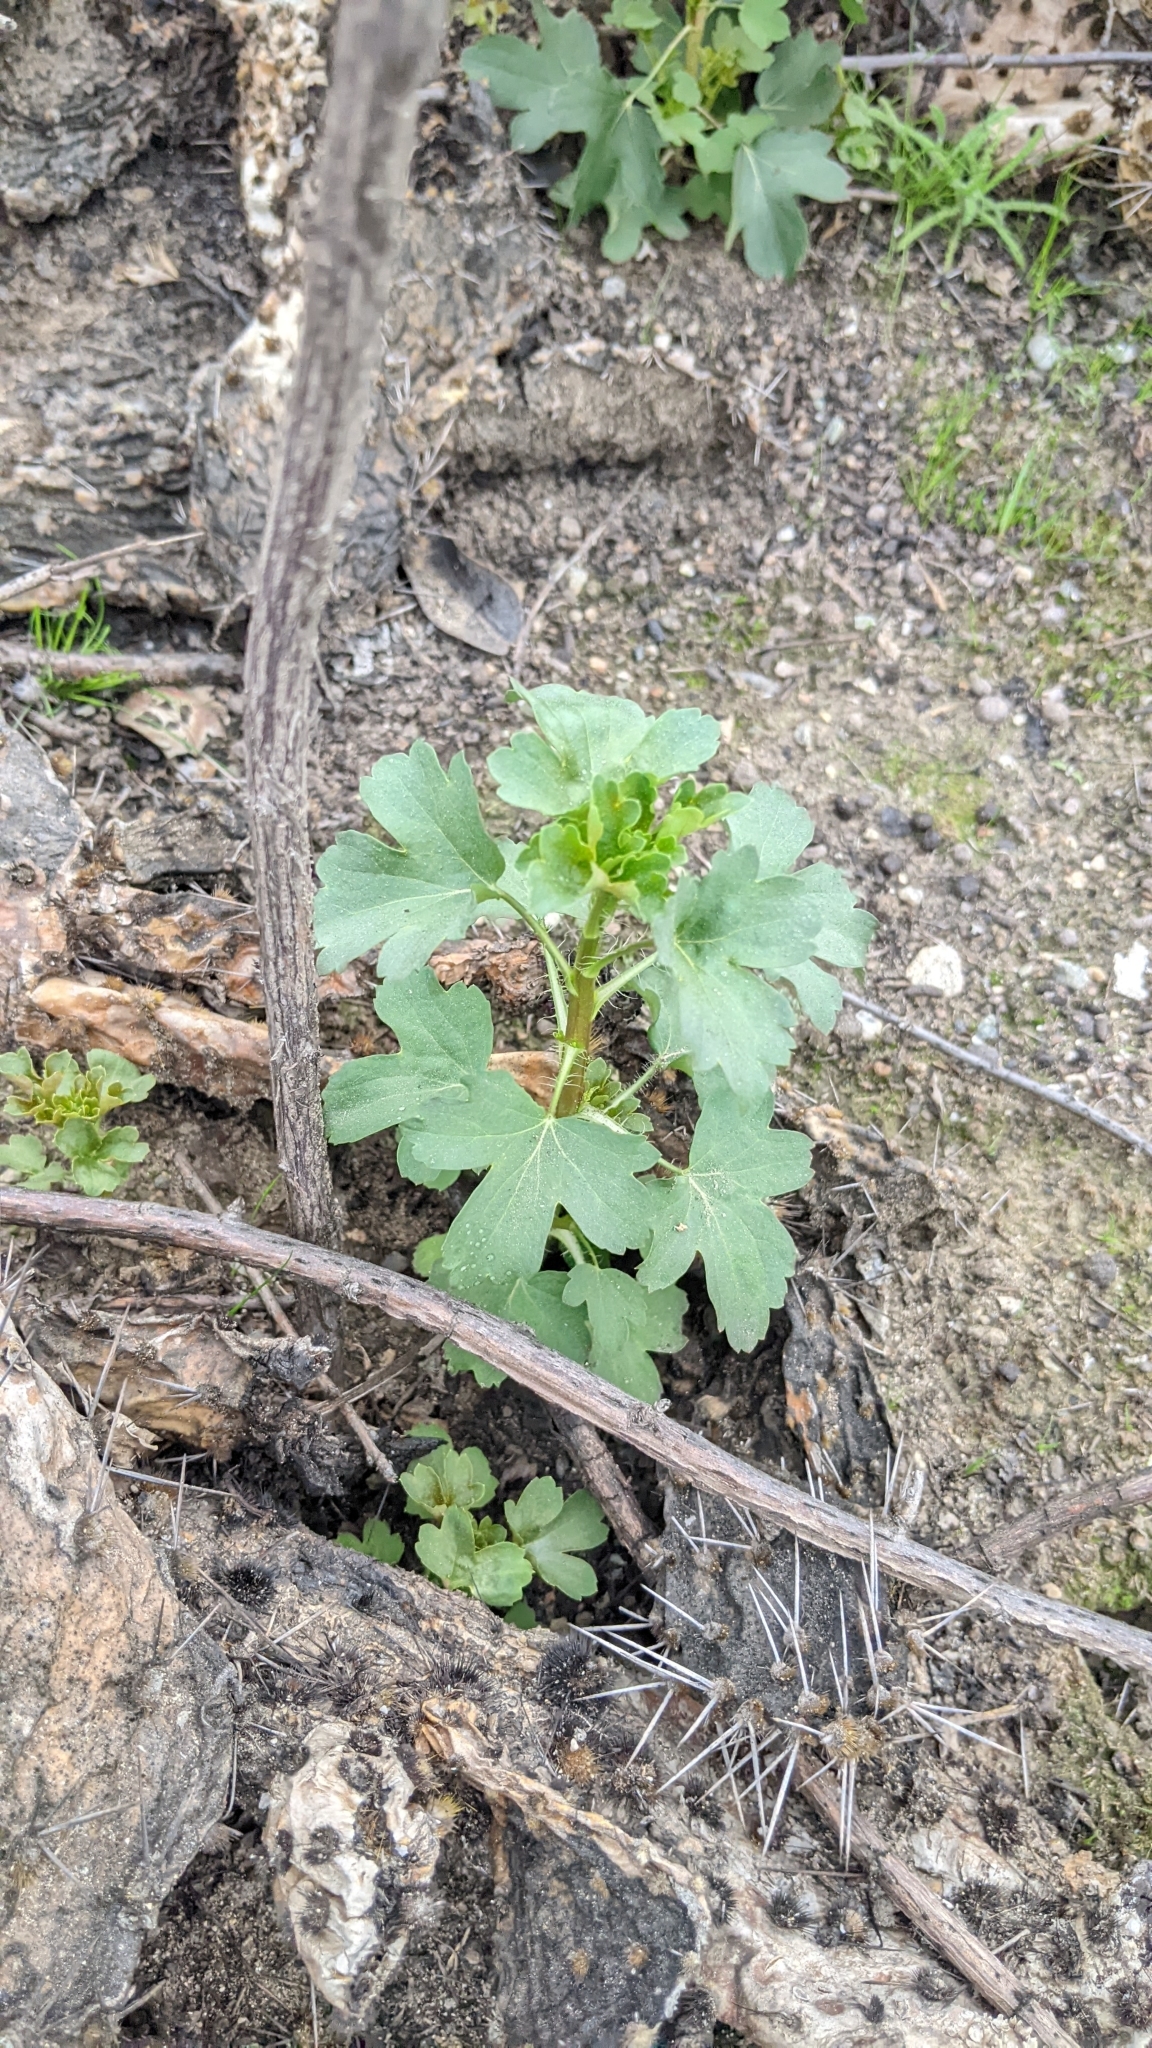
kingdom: Plantae
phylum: Tracheophyta
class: Magnoliopsida
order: Saxifragales
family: Grossulariaceae
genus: Ribes
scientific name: Ribes aureum
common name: Golden currant
